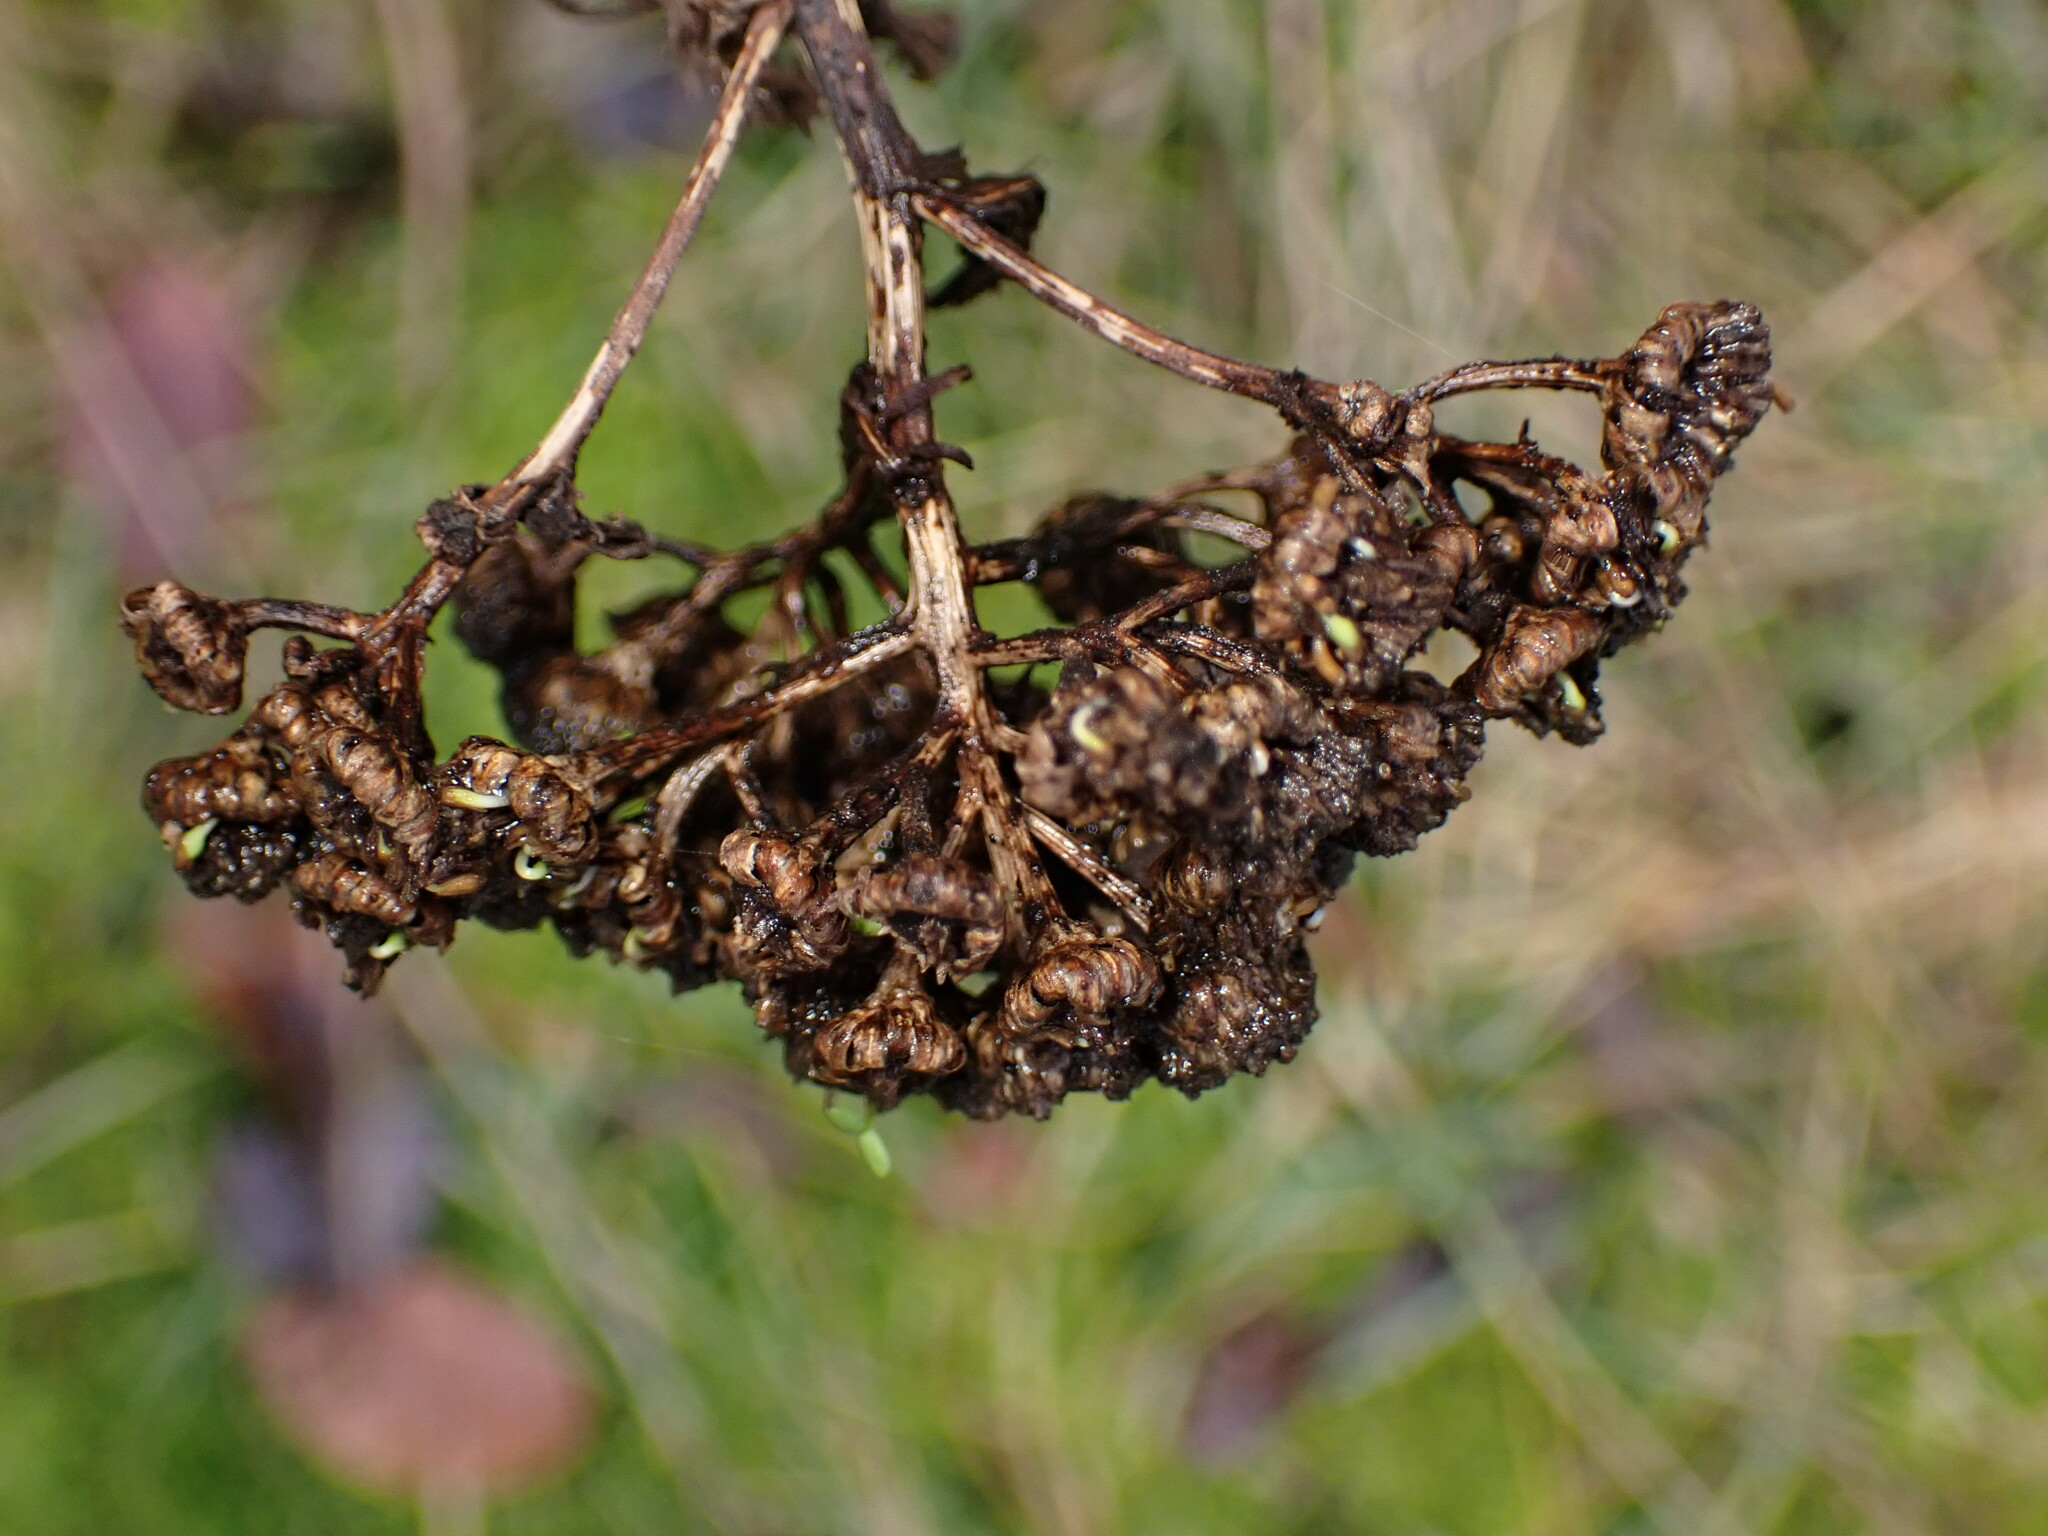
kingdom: Plantae
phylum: Tracheophyta
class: Magnoliopsida
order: Asterales
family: Asteraceae
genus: Tanacetum
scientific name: Tanacetum vulgare
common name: Common tansy
